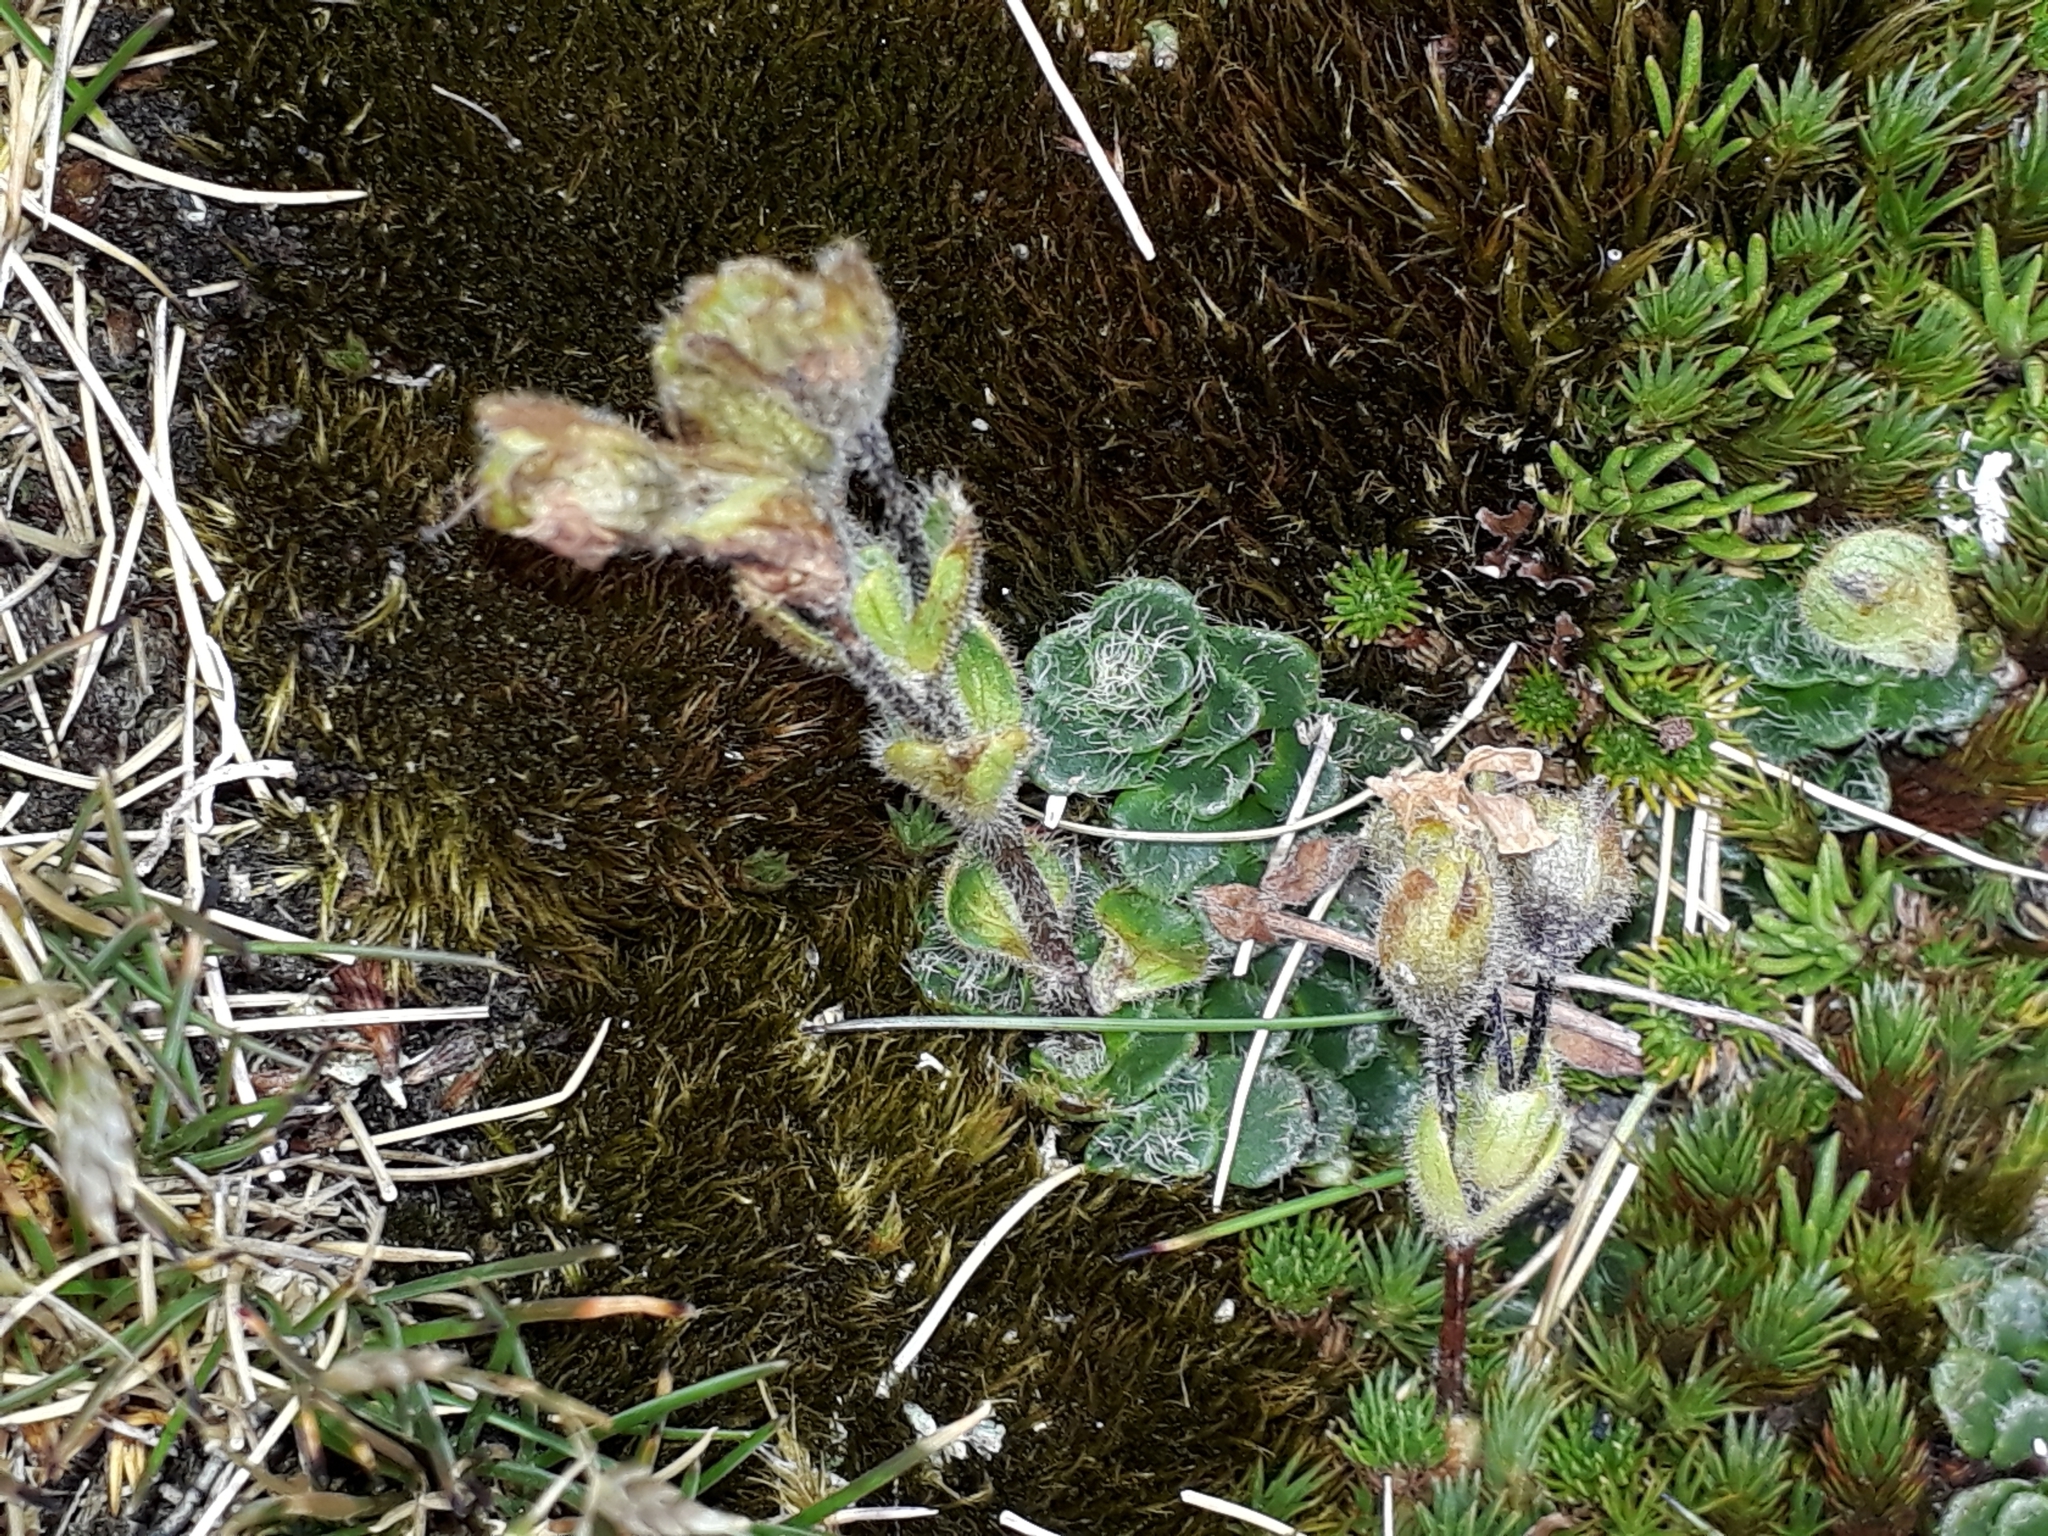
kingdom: Plantae
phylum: Tracheophyta
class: Magnoliopsida
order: Lamiales
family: Plantaginaceae
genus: Ourisia
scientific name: Ourisia glandulosa
